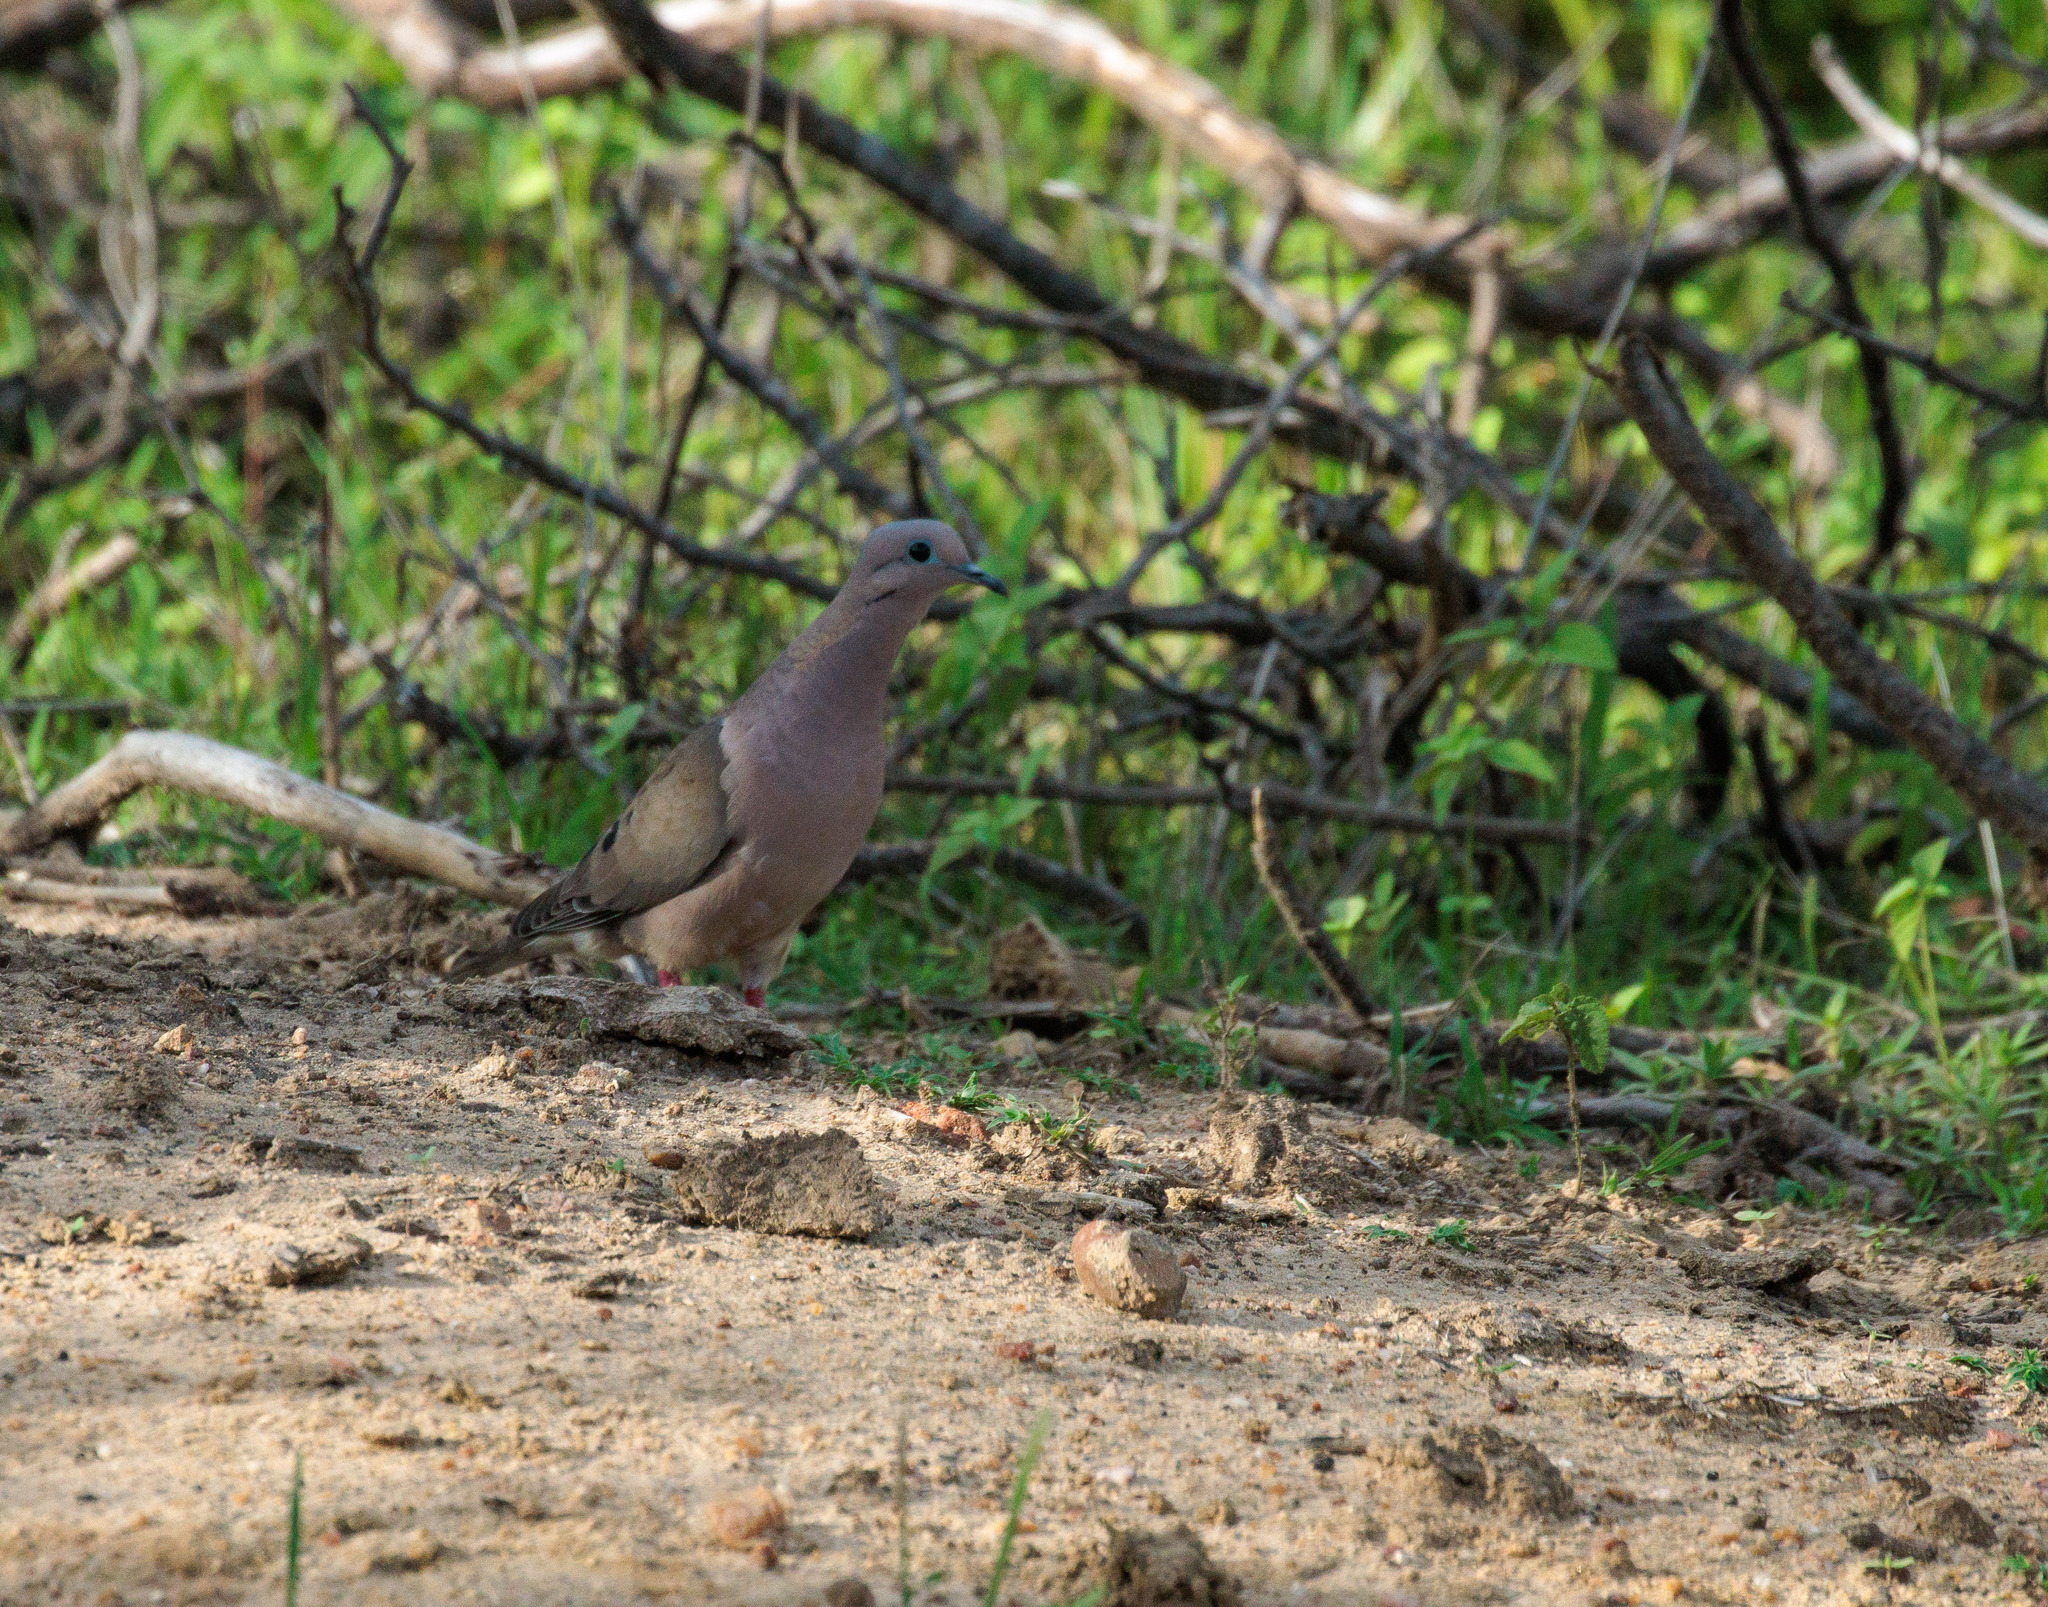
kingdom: Animalia
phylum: Chordata
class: Aves
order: Columbiformes
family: Columbidae
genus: Zenaida
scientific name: Zenaida auriculata
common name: Eared dove
